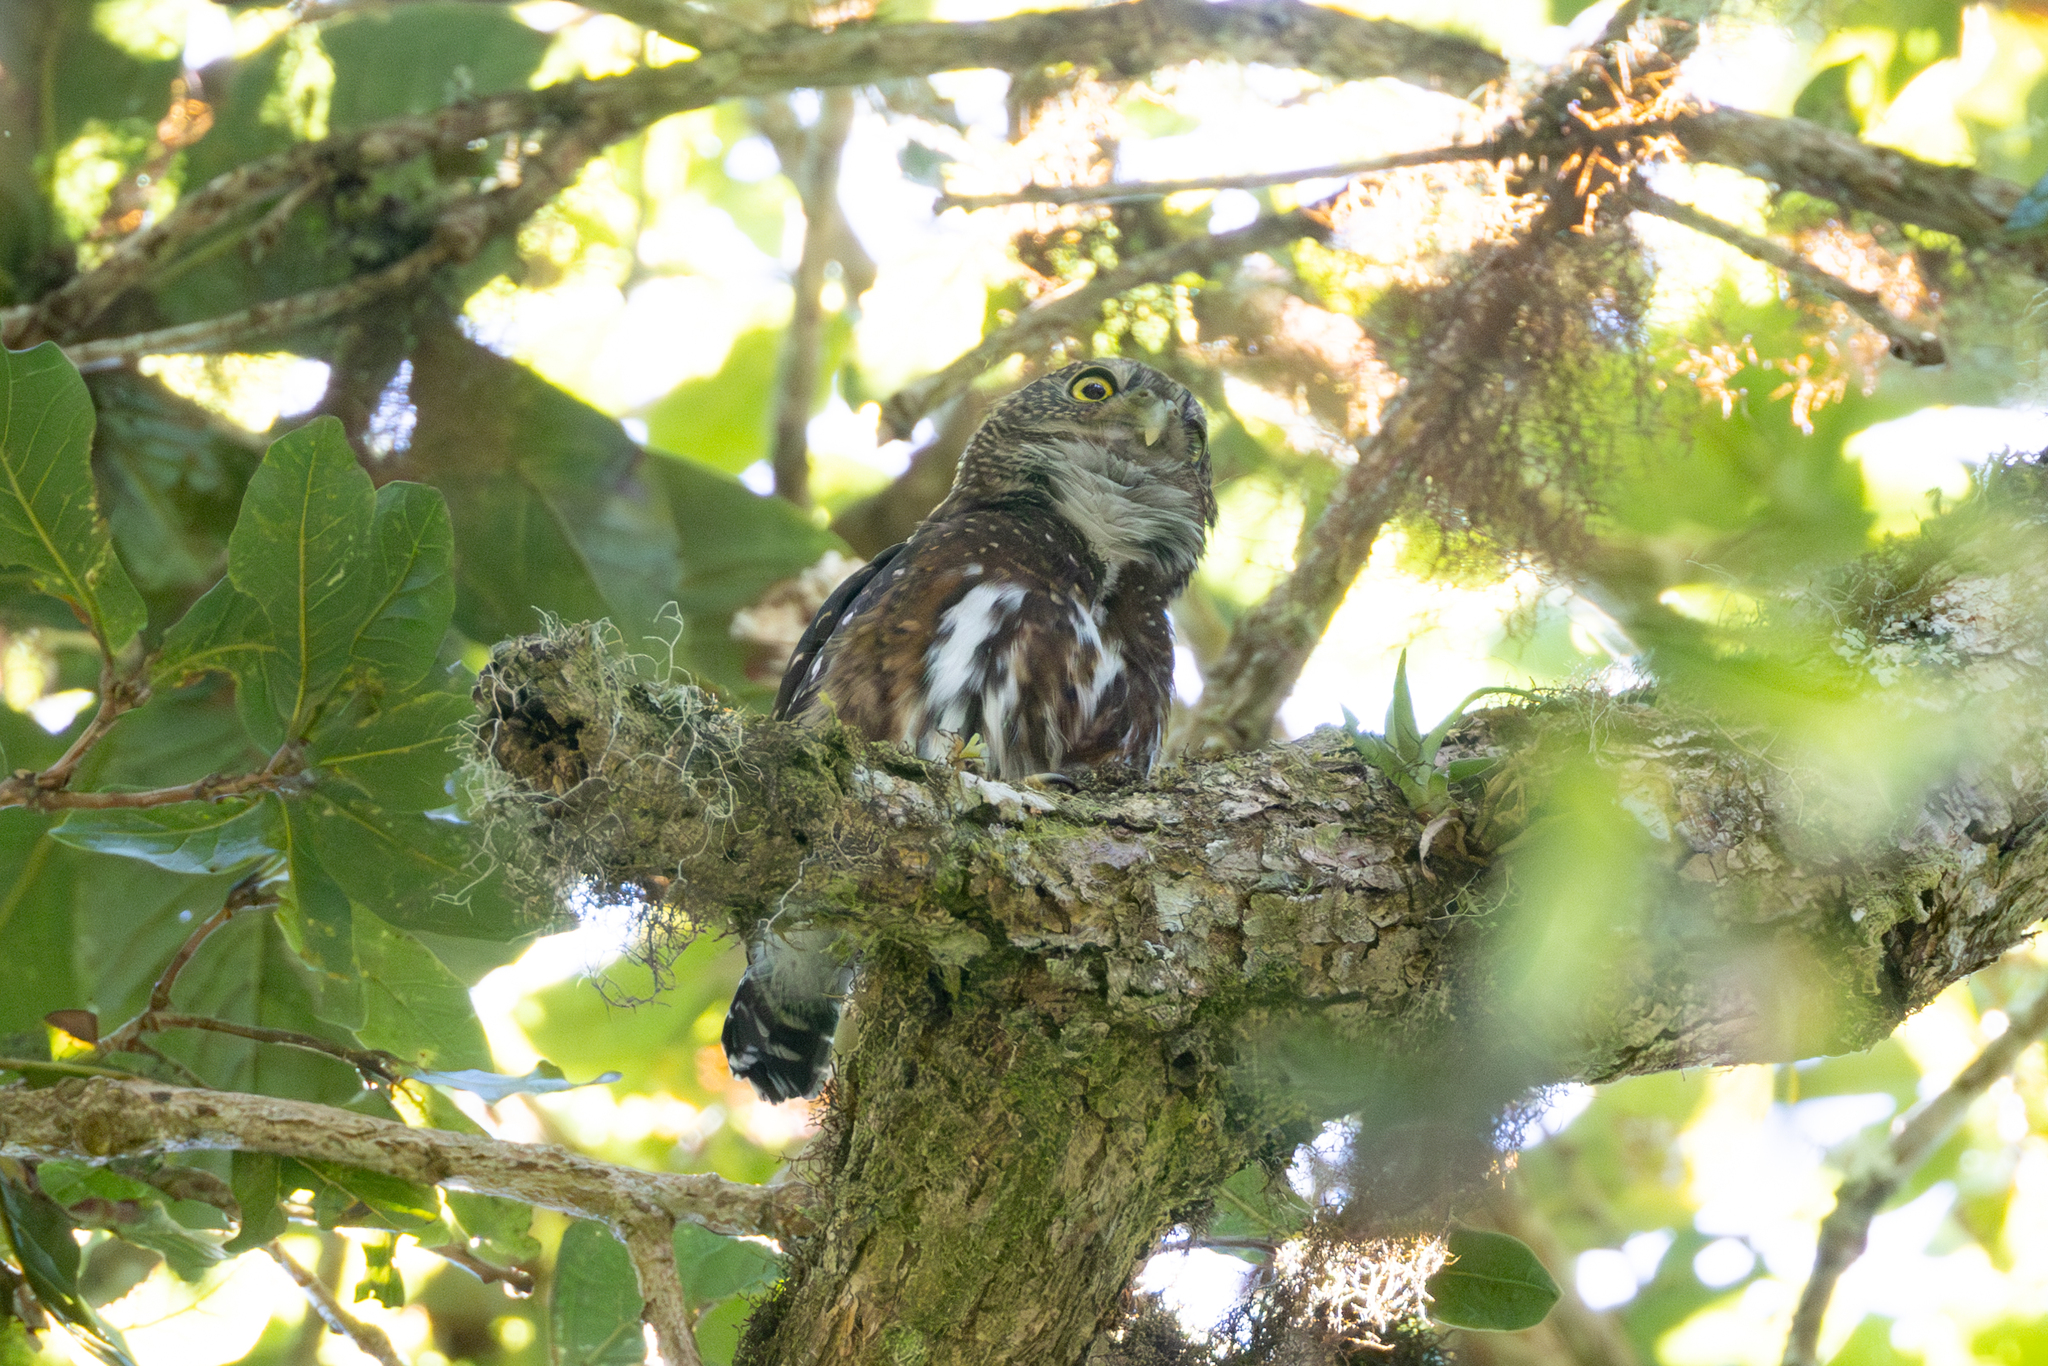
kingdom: Animalia
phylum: Chordata
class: Aves
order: Strigiformes
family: Strigidae
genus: Glaucidium
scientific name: Glaucidium costaricanum
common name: Costa rican pygmy-owl
